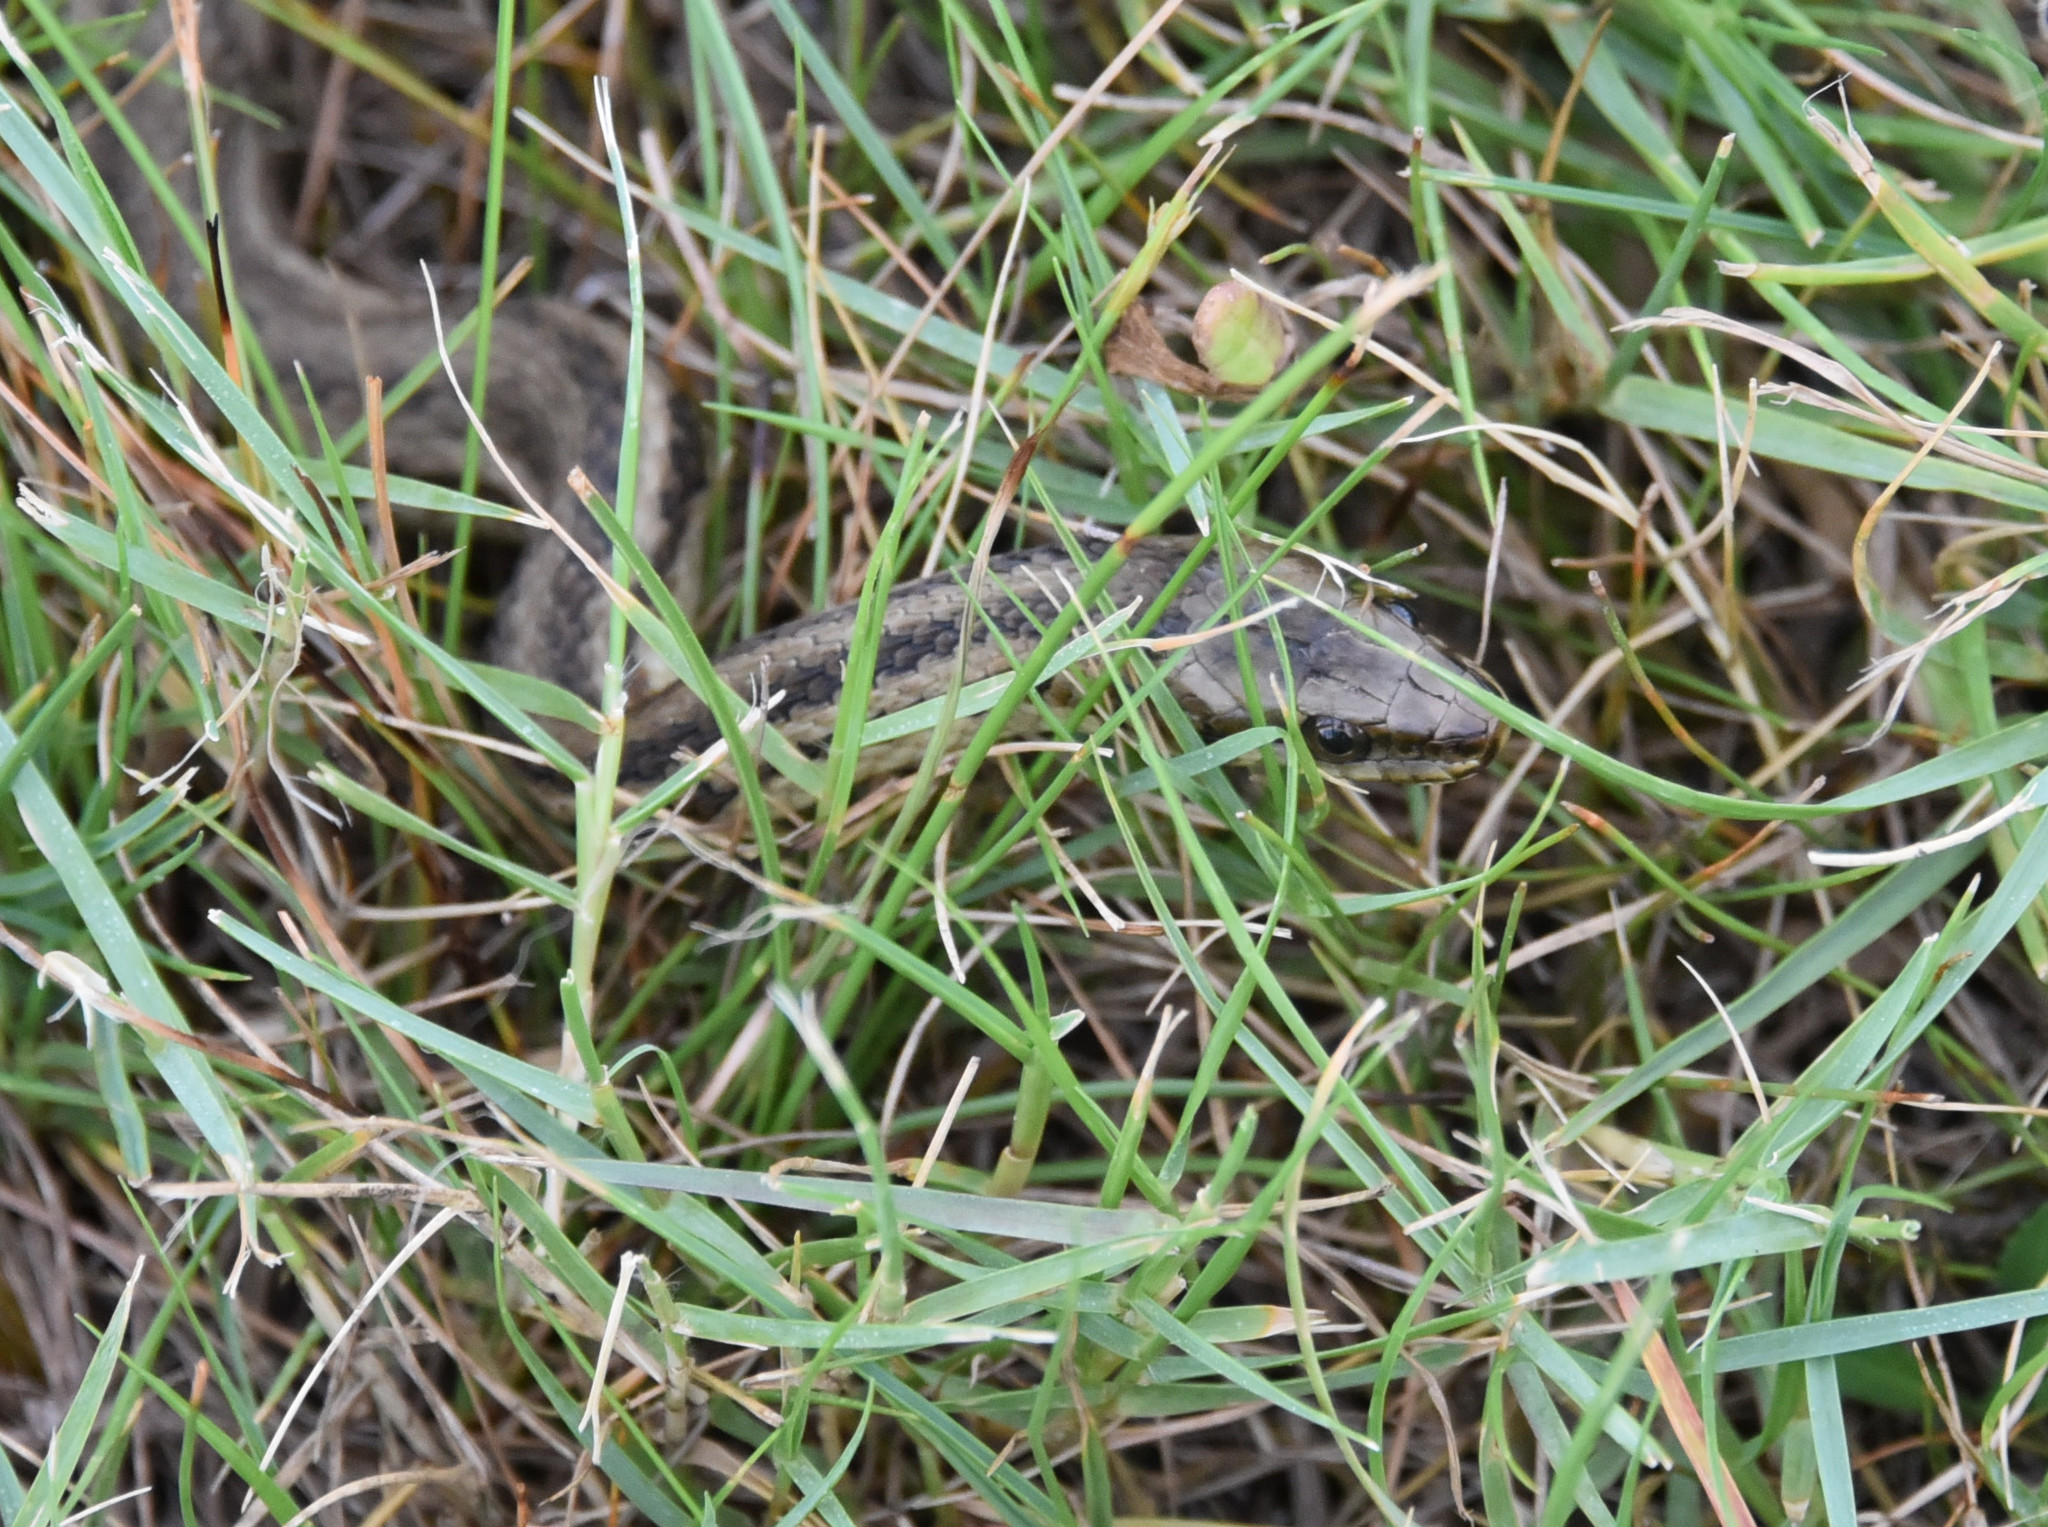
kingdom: Animalia
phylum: Chordata
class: Squamata
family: Colubridae
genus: Nerodia
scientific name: Nerodia clarkii
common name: Atlantic saltmarsh snake
